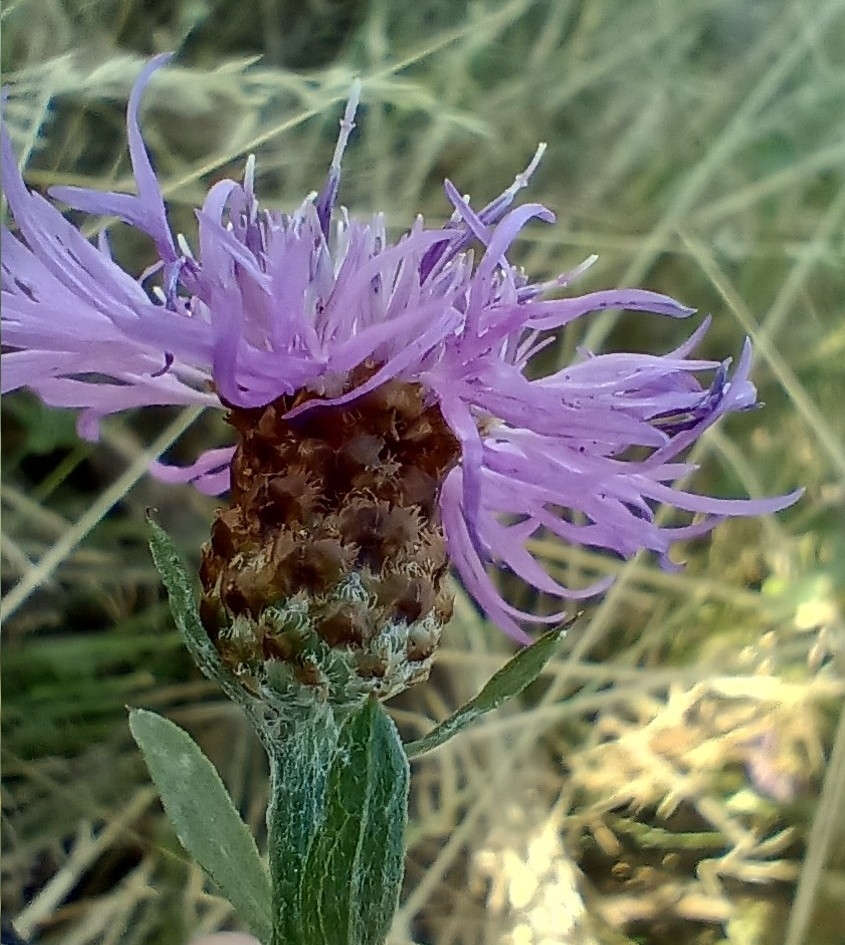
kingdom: Plantae
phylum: Tracheophyta
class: Magnoliopsida
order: Asterales
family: Asteraceae
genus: Centaurea
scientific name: Centaurea fleischeri
